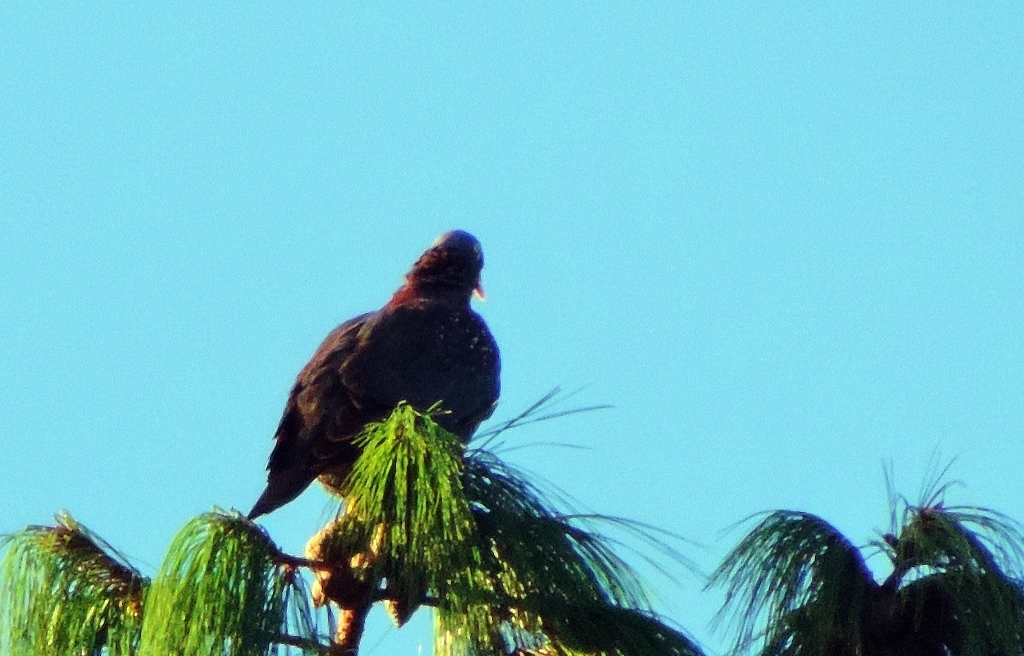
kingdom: Animalia
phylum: Chordata
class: Aves
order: Columbiformes
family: Columbidae
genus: Columba
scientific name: Columba arquatrix
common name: African olive pigeon
